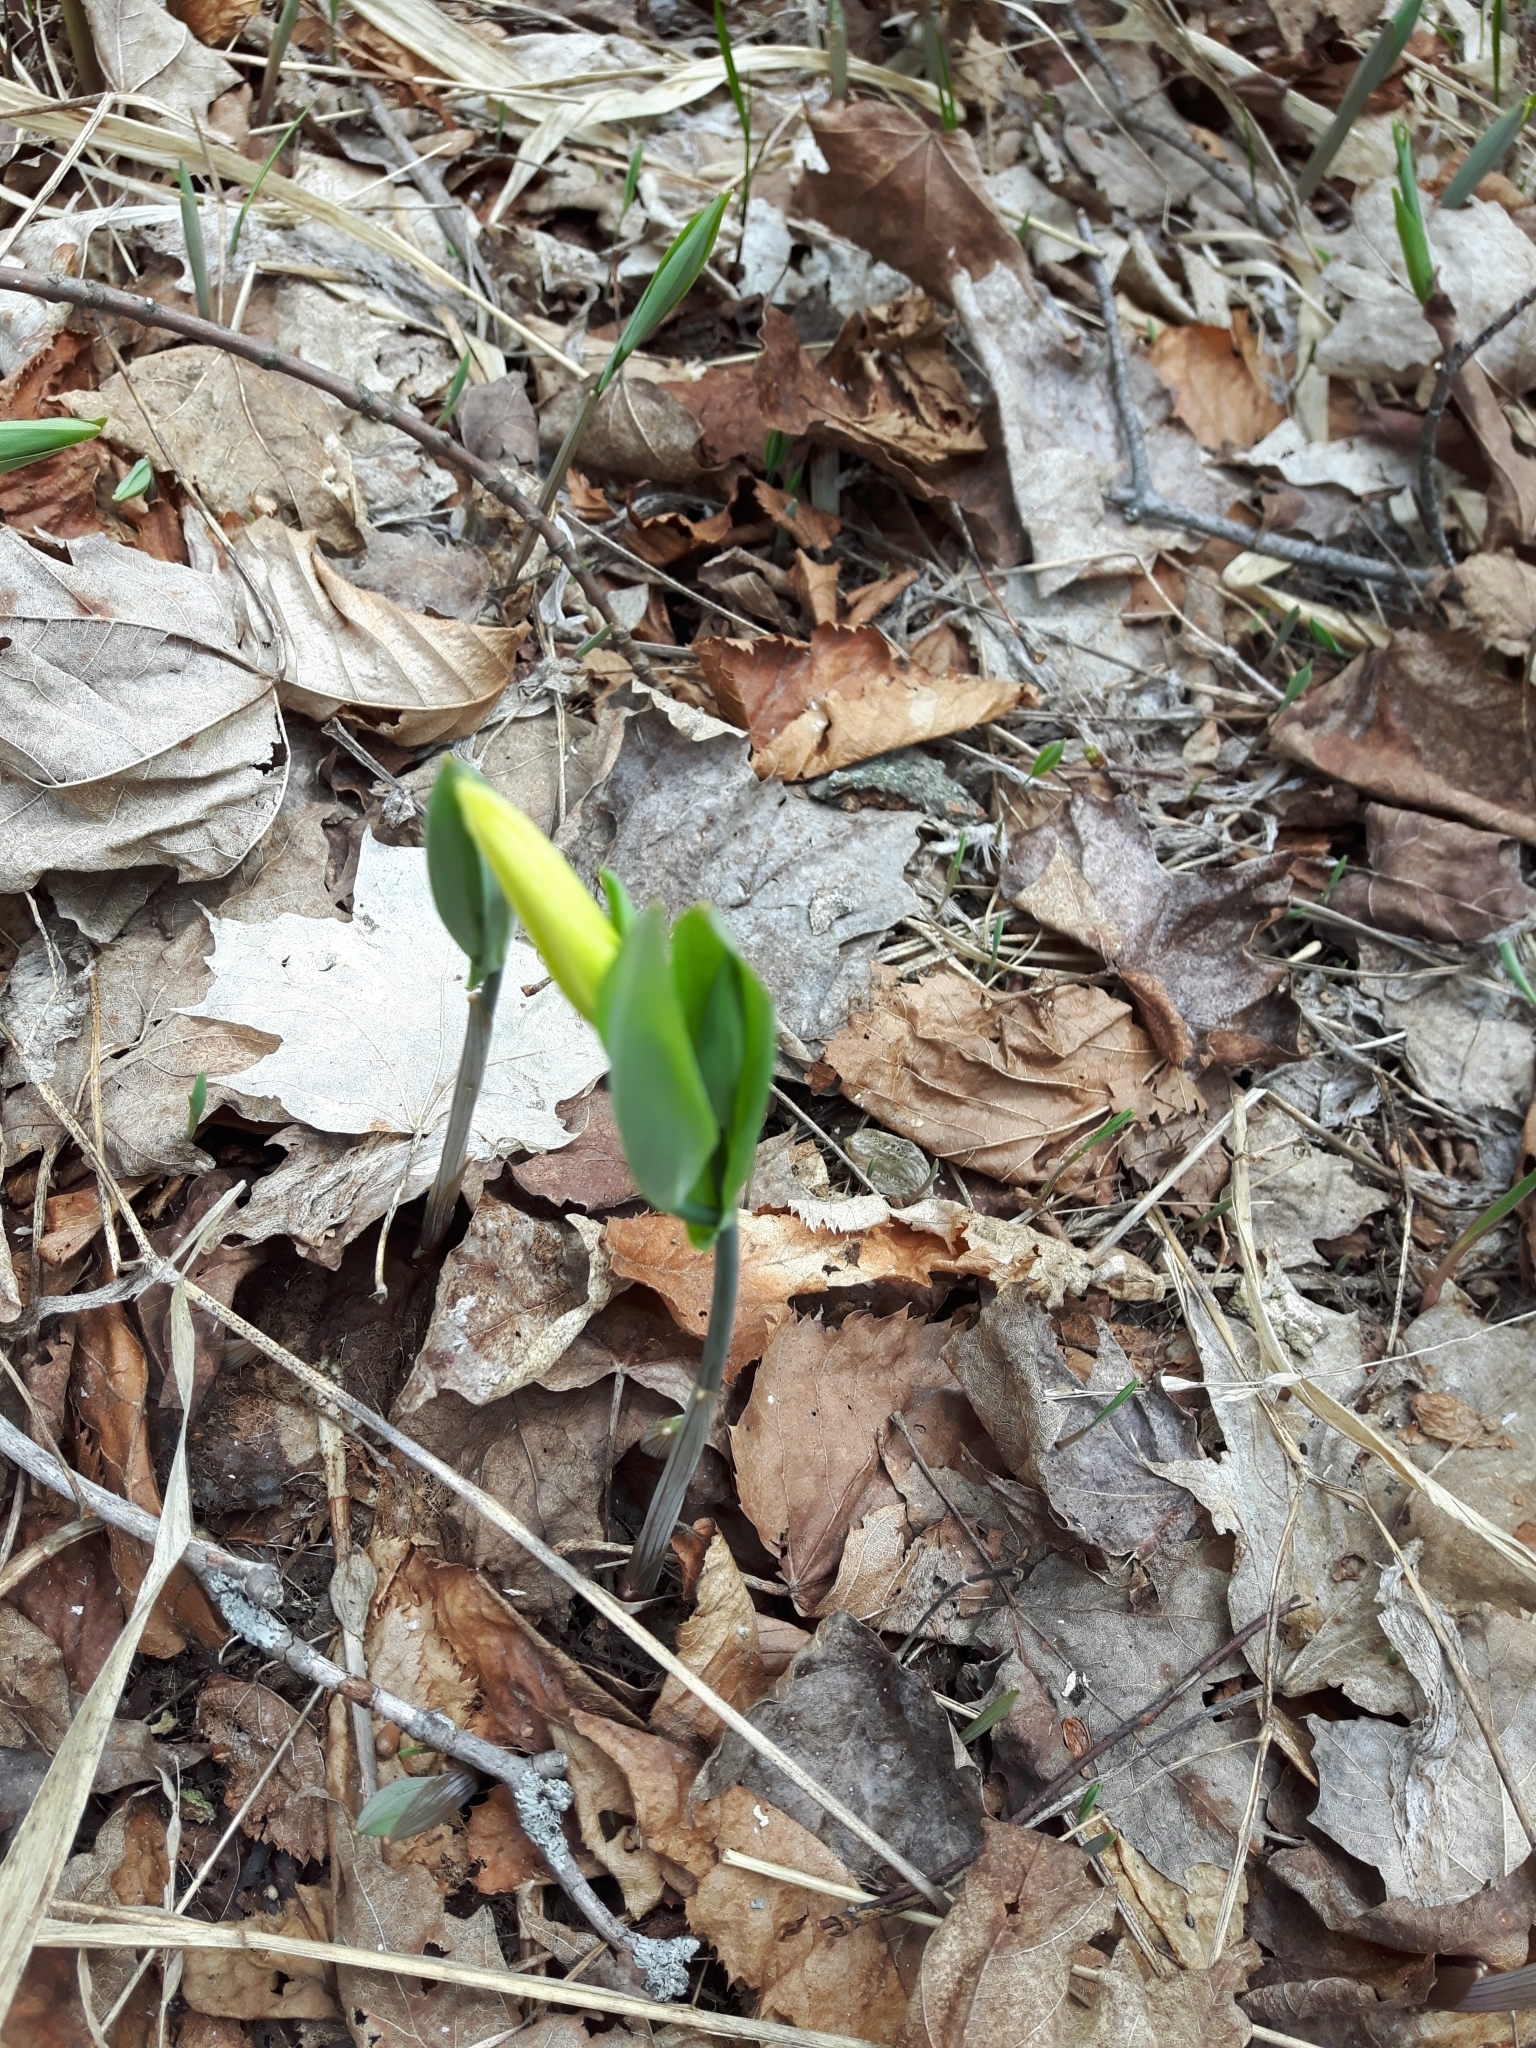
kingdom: Plantae
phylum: Tracheophyta
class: Liliopsida
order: Liliales
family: Colchicaceae
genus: Uvularia
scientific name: Uvularia grandiflora
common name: Bellwort
